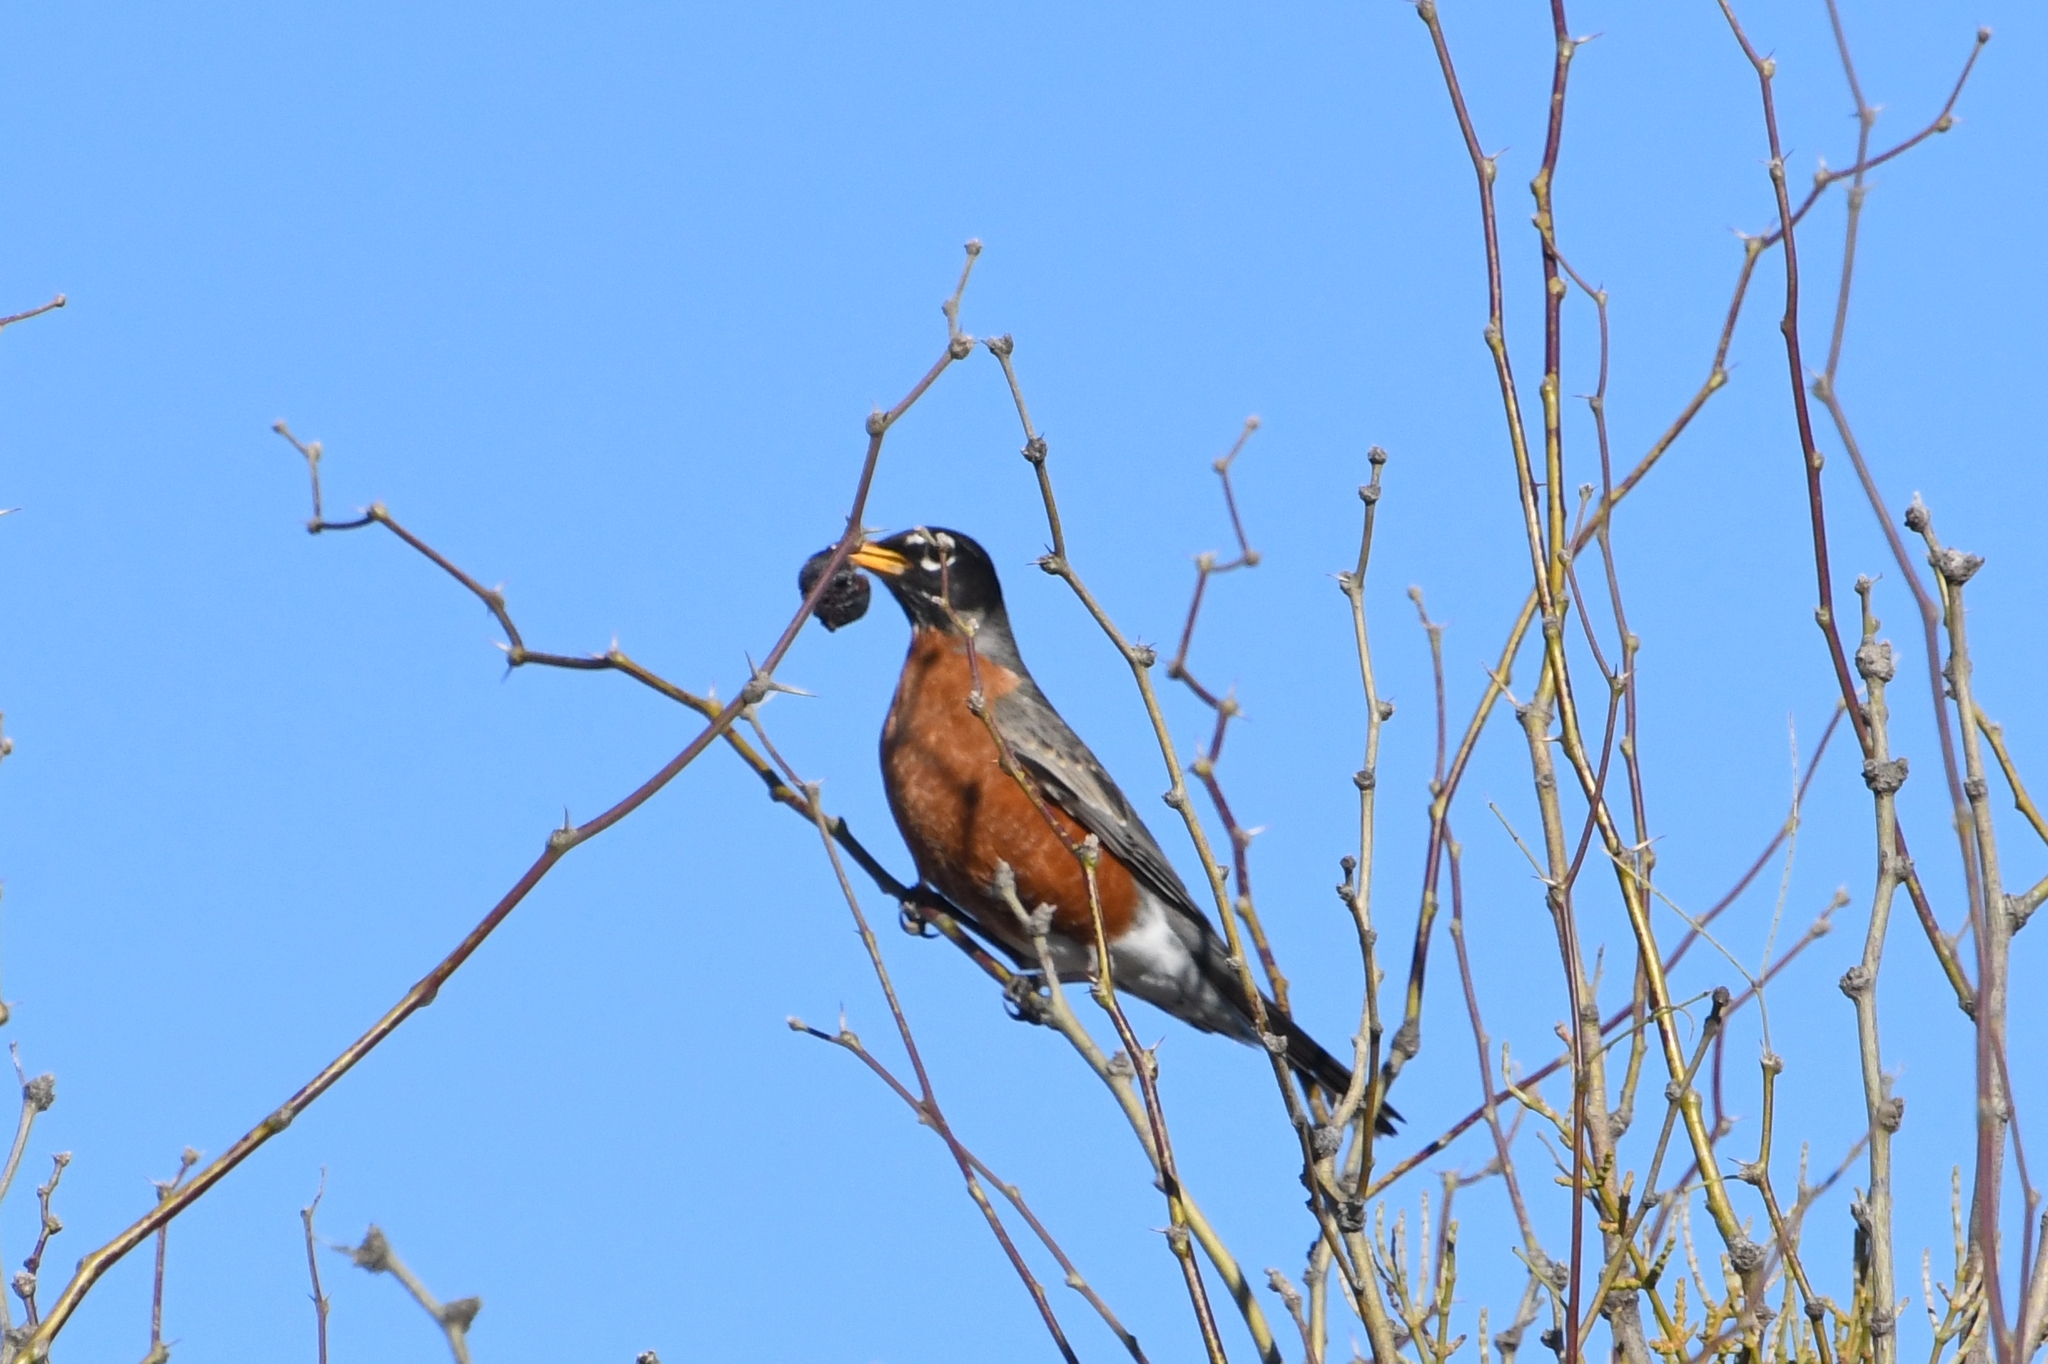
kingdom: Animalia
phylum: Chordata
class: Aves
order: Passeriformes
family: Turdidae
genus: Turdus
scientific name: Turdus migratorius
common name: American robin
